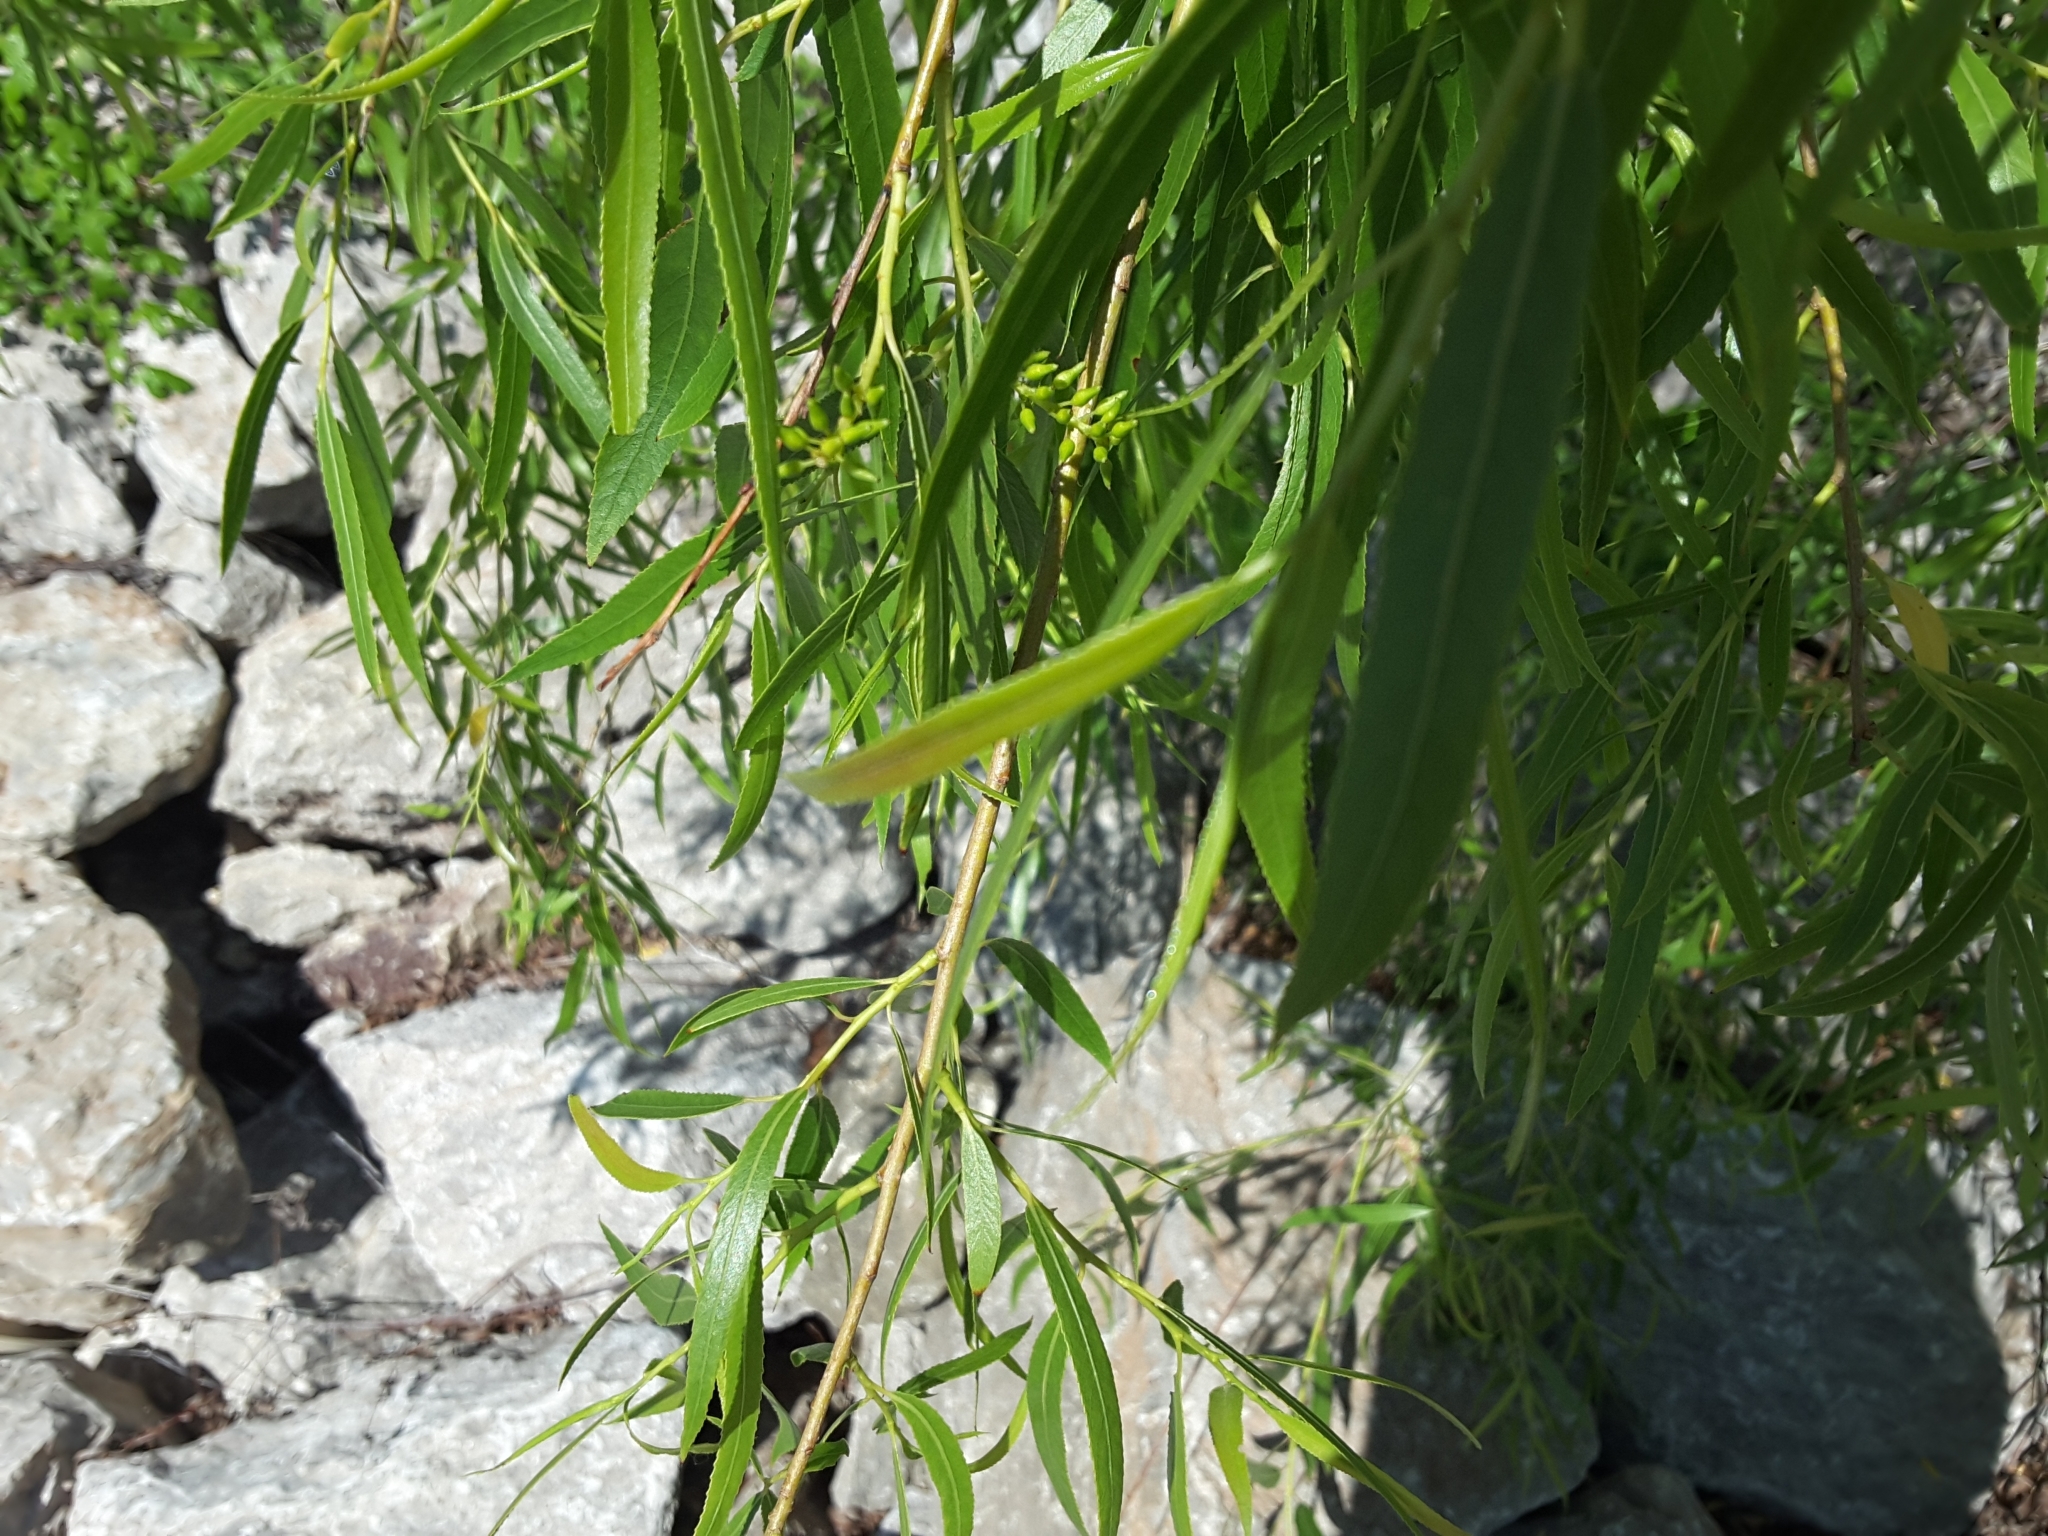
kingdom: Plantae
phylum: Tracheophyta
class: Magnoliopsida
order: Malpighiales
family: Salicaceae
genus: Salix
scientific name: Salix nigra
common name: Black willow
